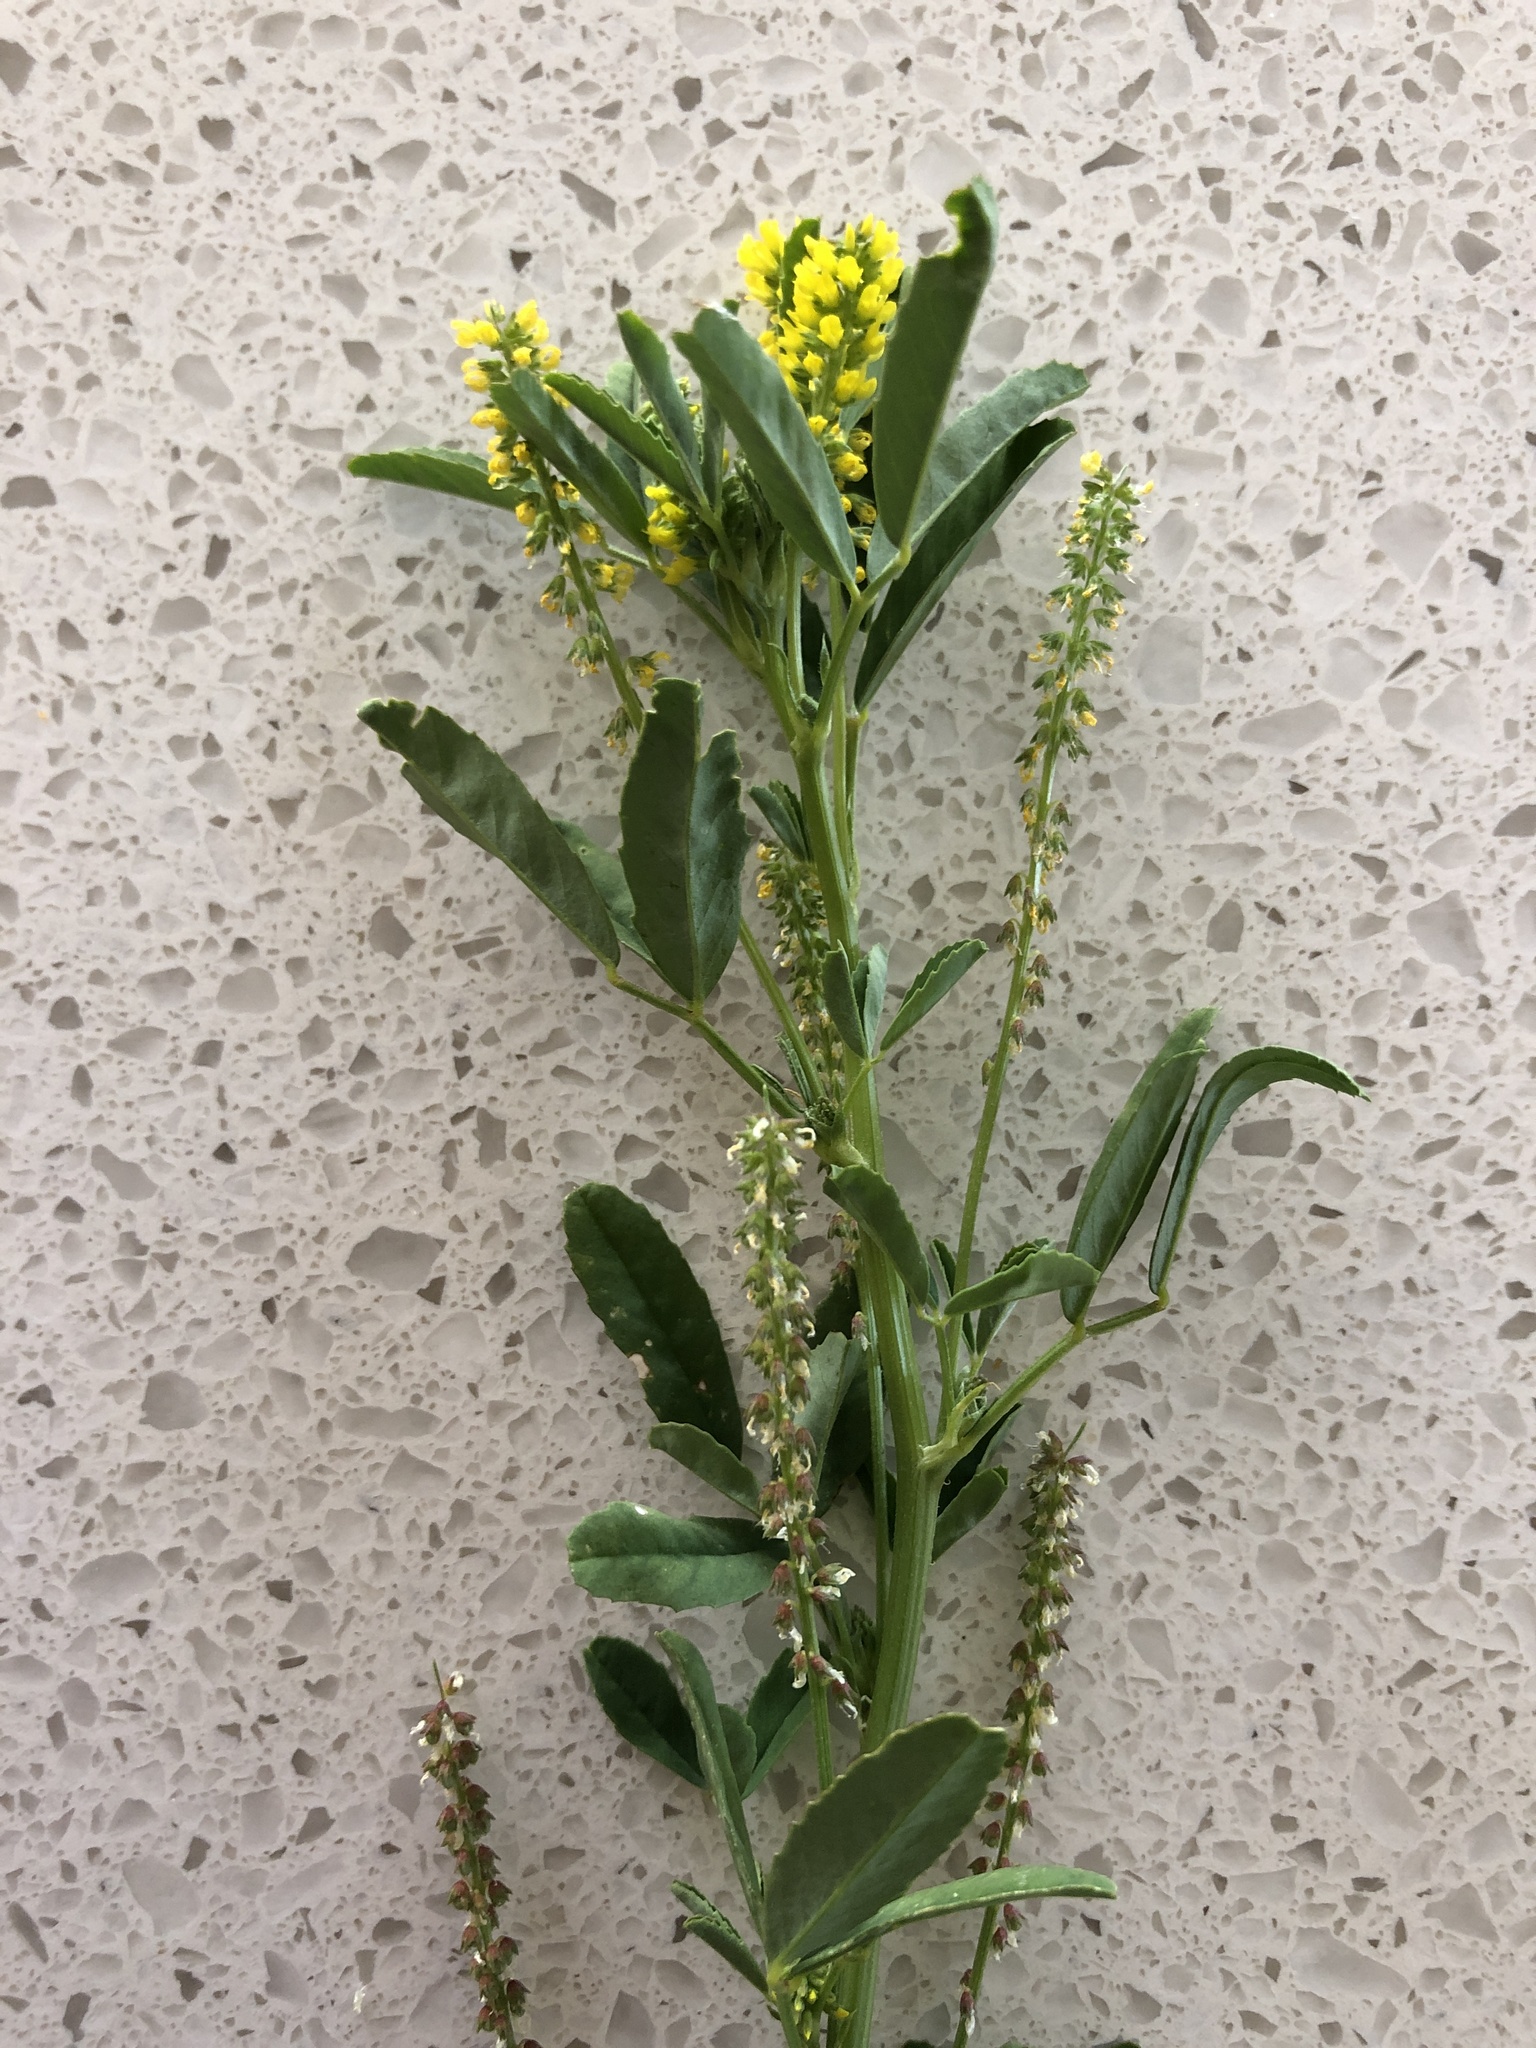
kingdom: Plantae
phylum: Tracheophyta
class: Magnoliopsida
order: Fabales
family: Fabaceae
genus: Melilotus
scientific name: Melilotus indicus
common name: Small melilot
